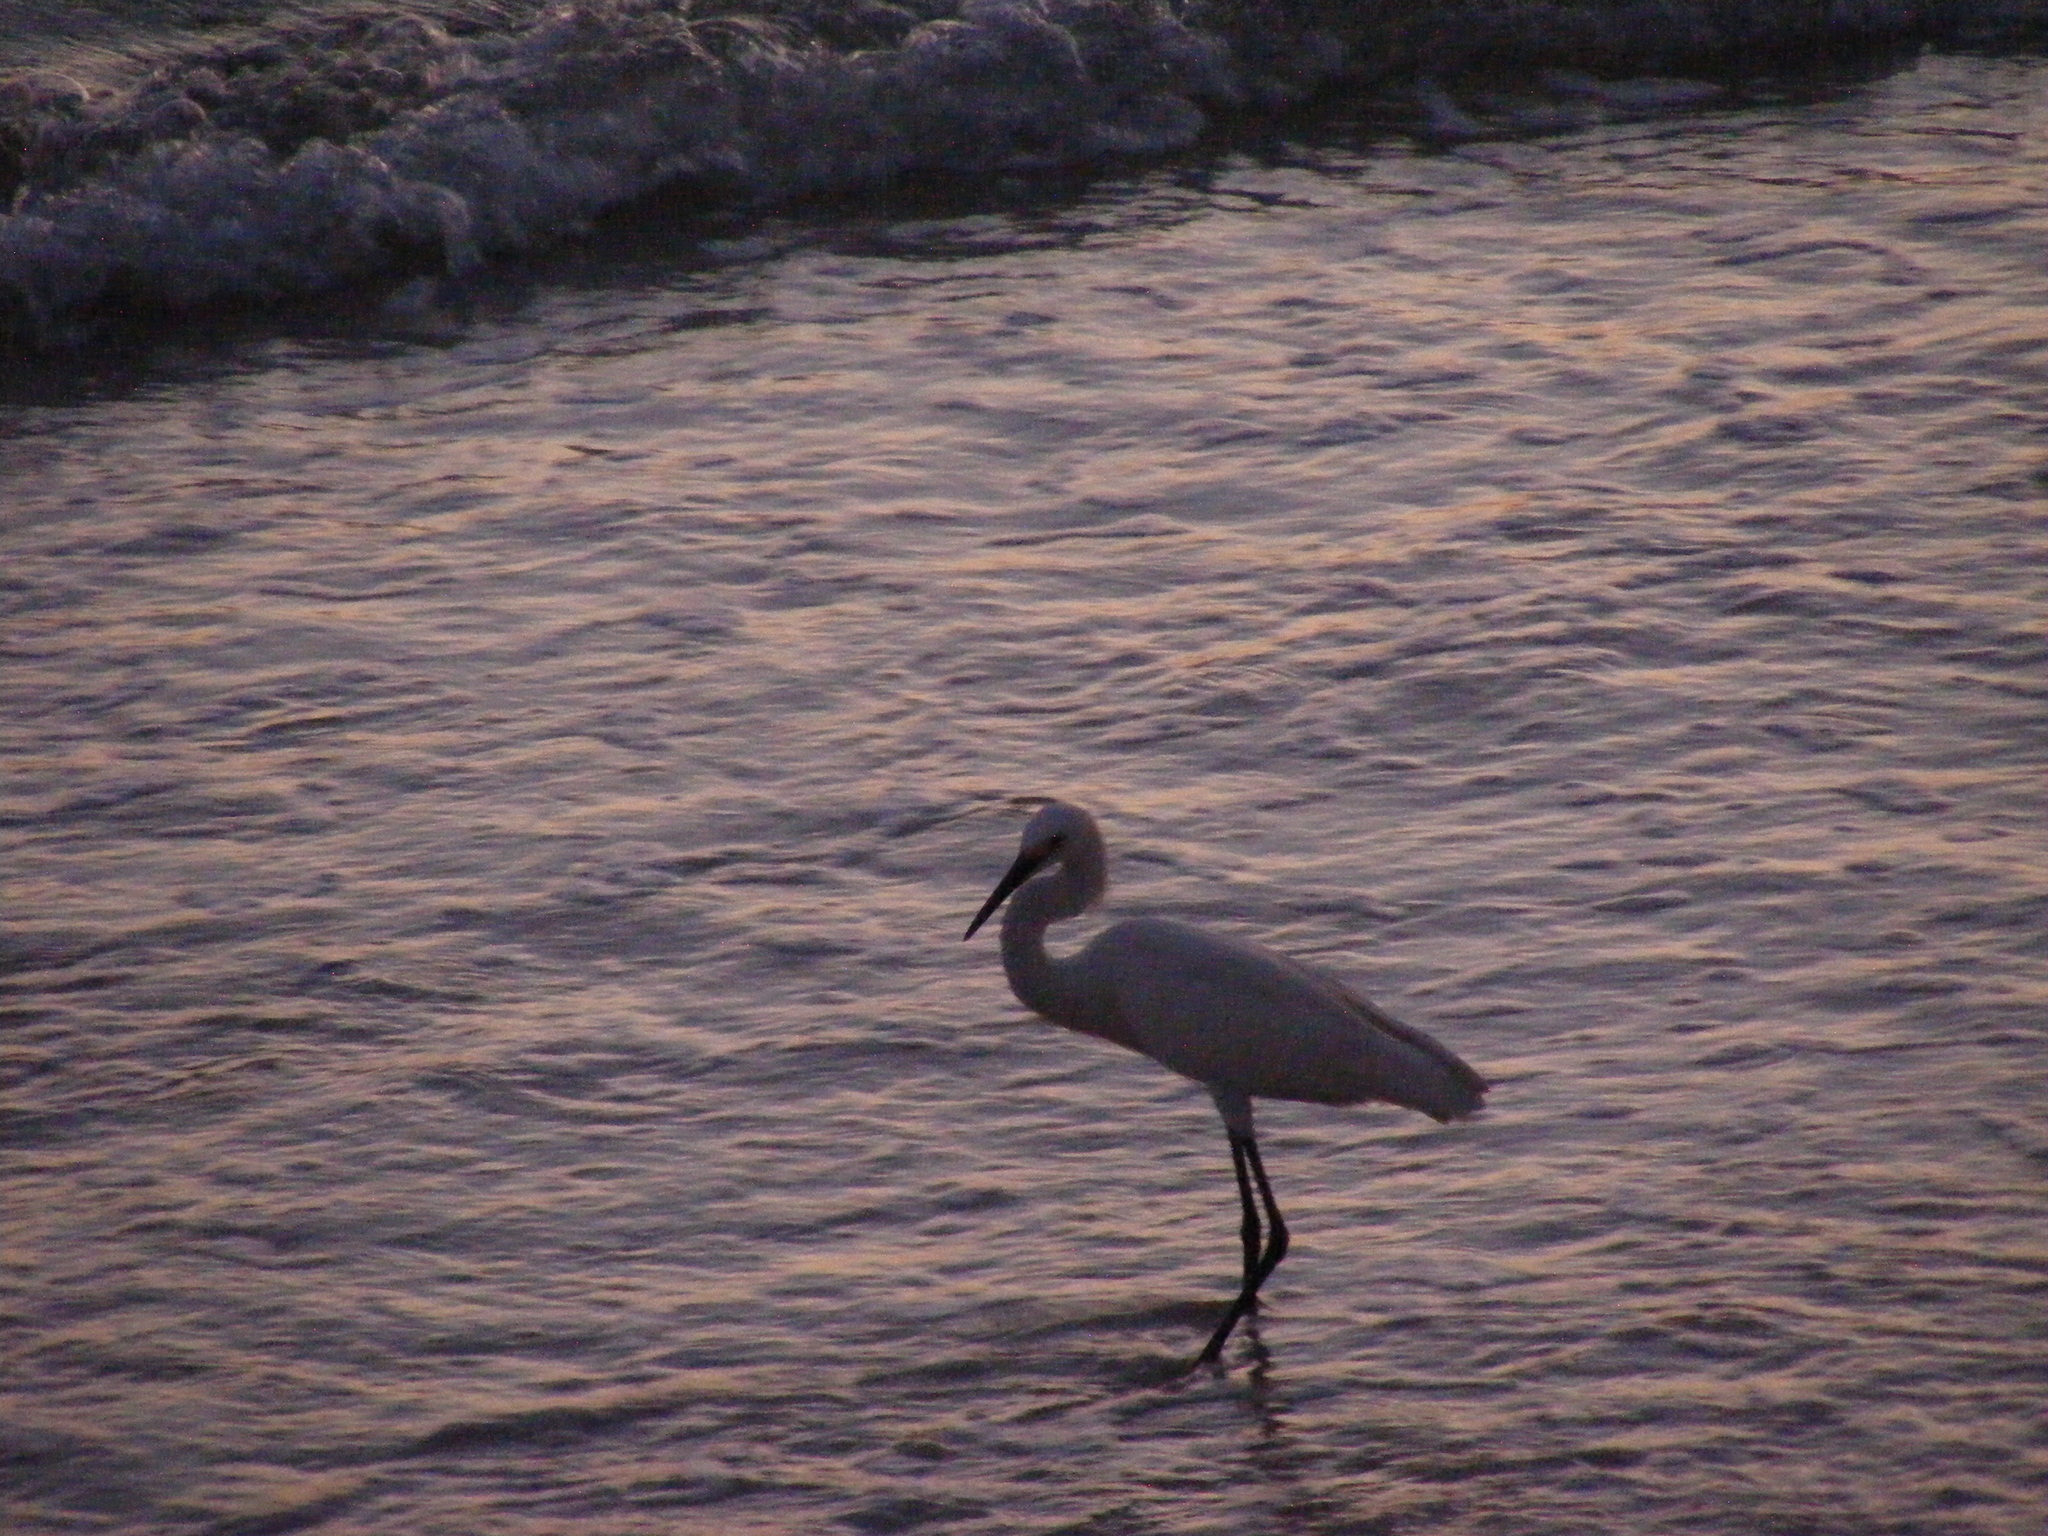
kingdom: Animalia
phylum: Chordata
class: Aves
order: Pelecaniformes
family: Ardeidae
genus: Egretta
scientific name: Egretta thula
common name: Snowy egret
